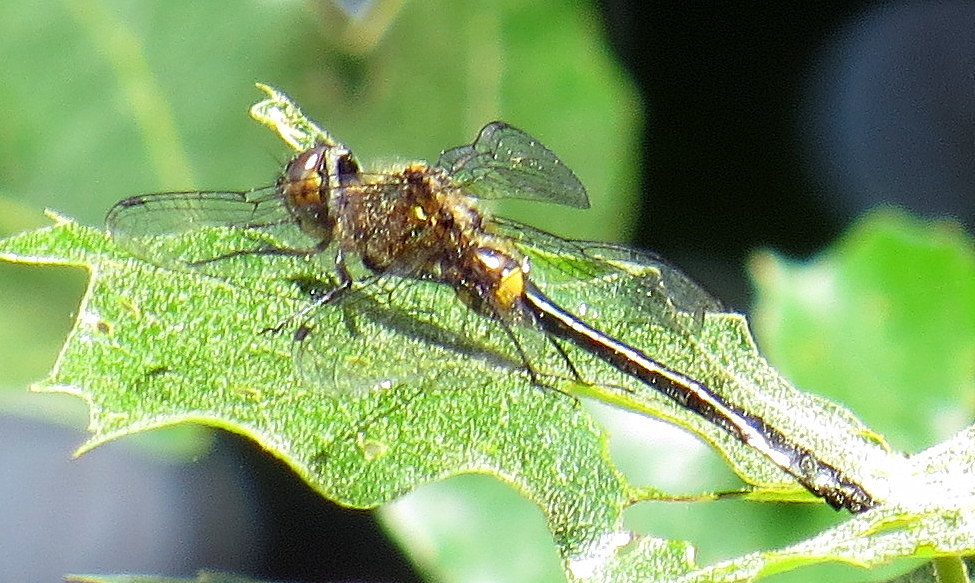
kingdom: Animalia
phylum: Arthropoda
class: Insecta
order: Odonata
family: Corduliidae
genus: Dorocordulia
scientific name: Dorocordulia libera
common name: Racket-tailed emerald
